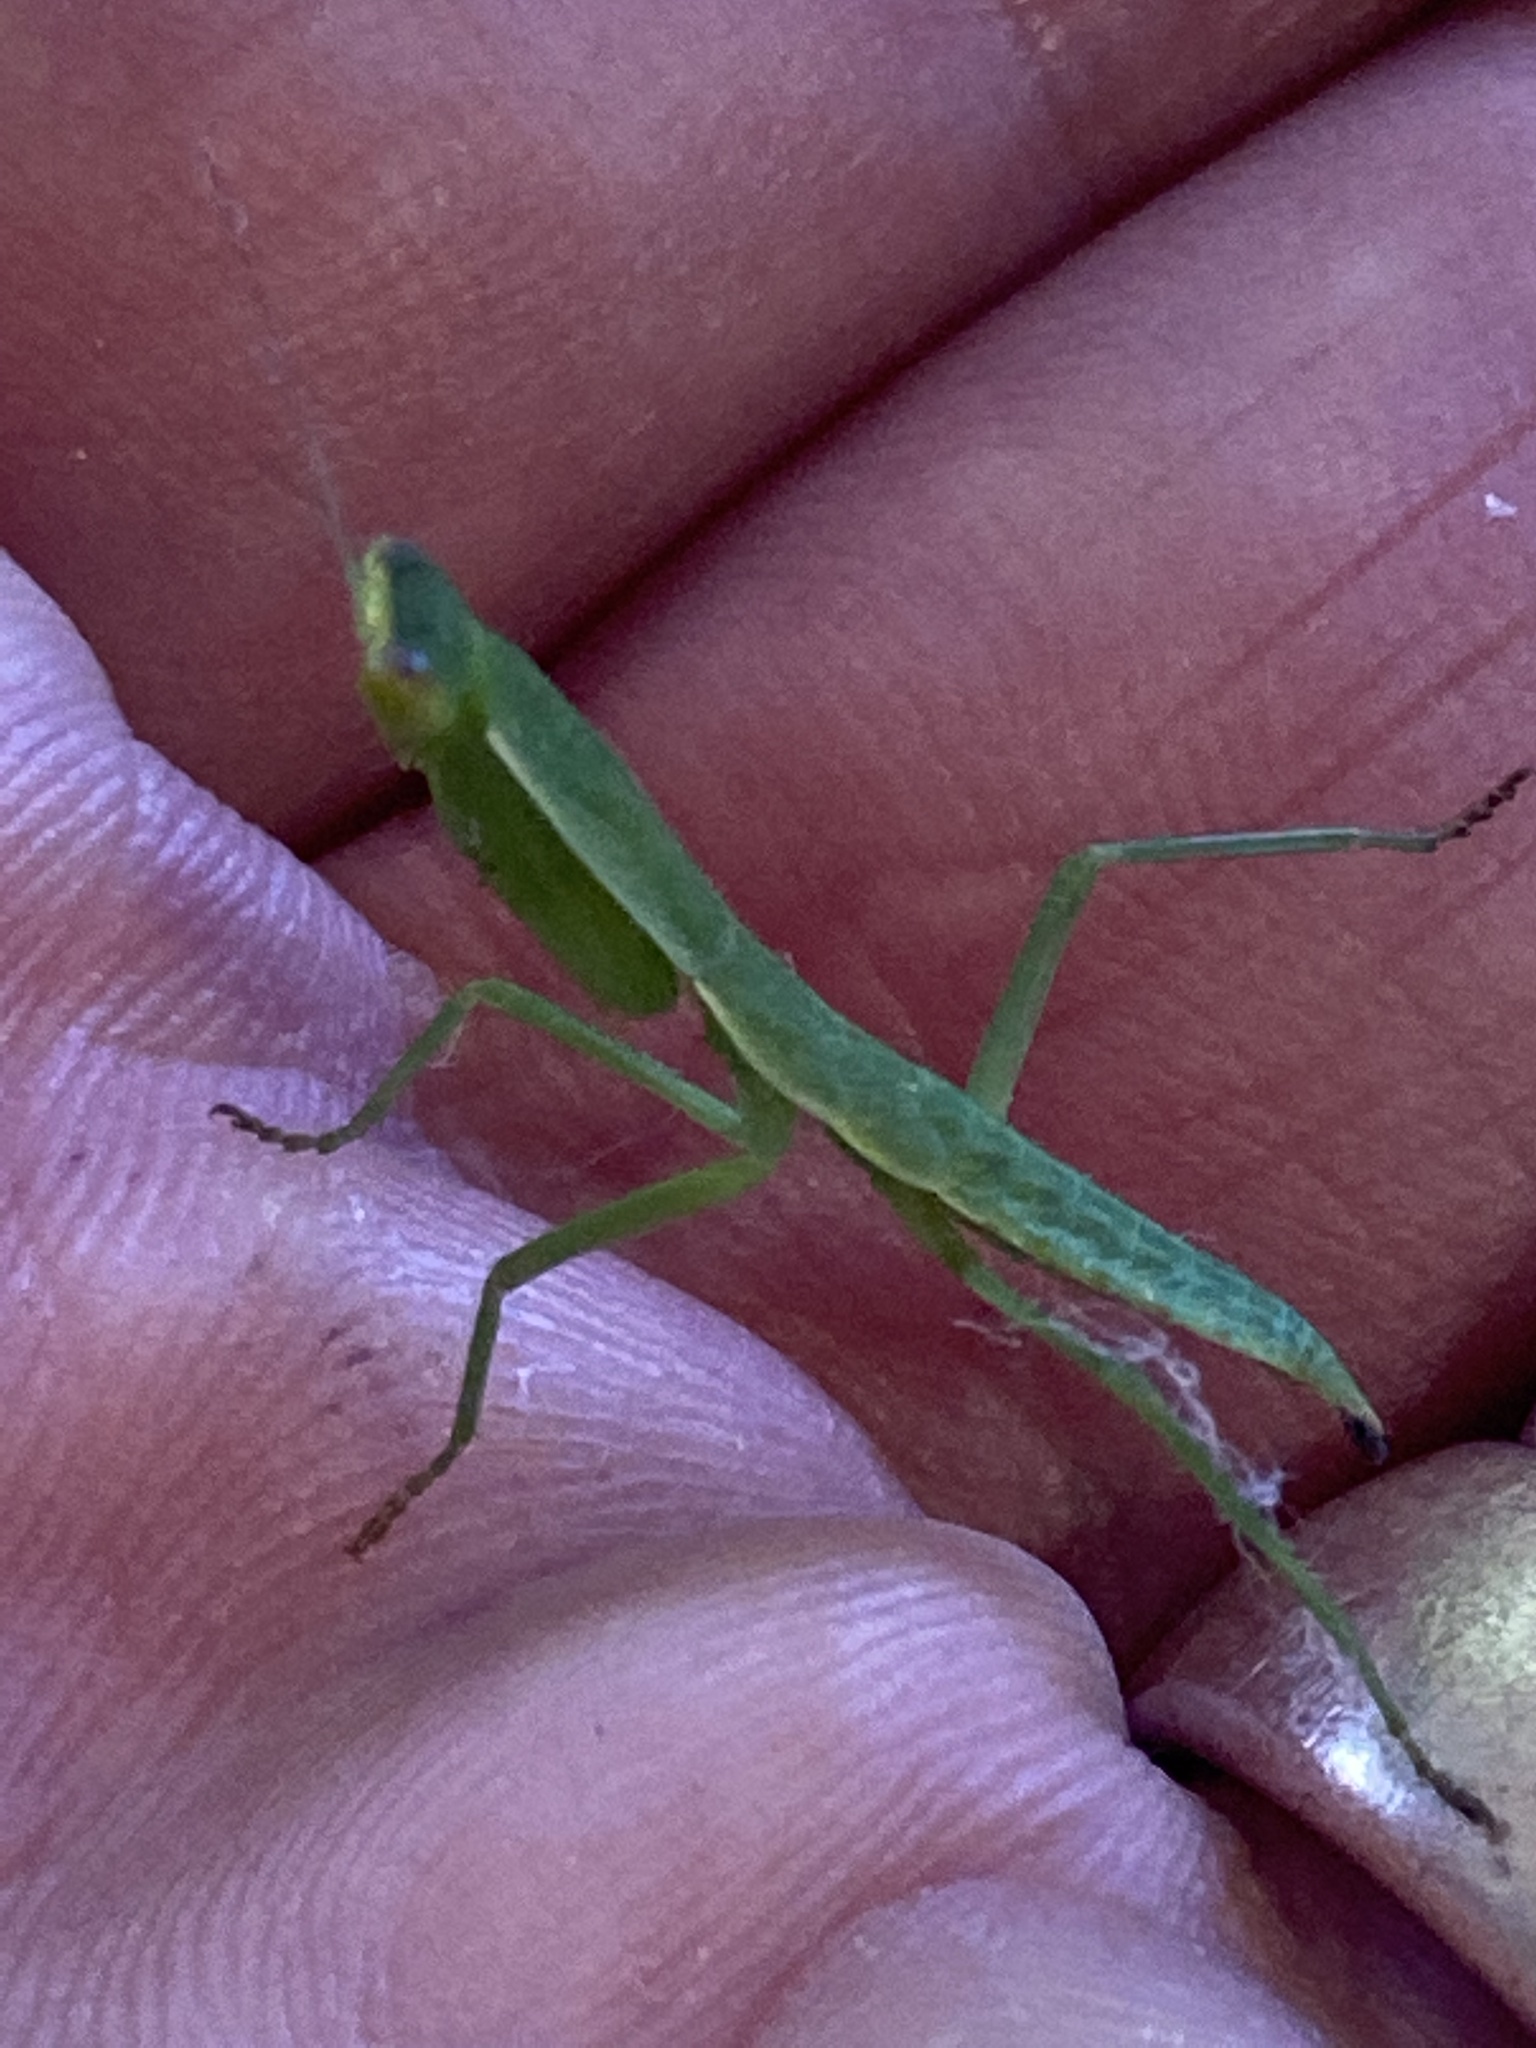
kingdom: Animalia
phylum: Arthropoda
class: Insecta
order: Mantodea
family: Mantidae
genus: Orthodera
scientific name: Orthodera novaezealandiae
